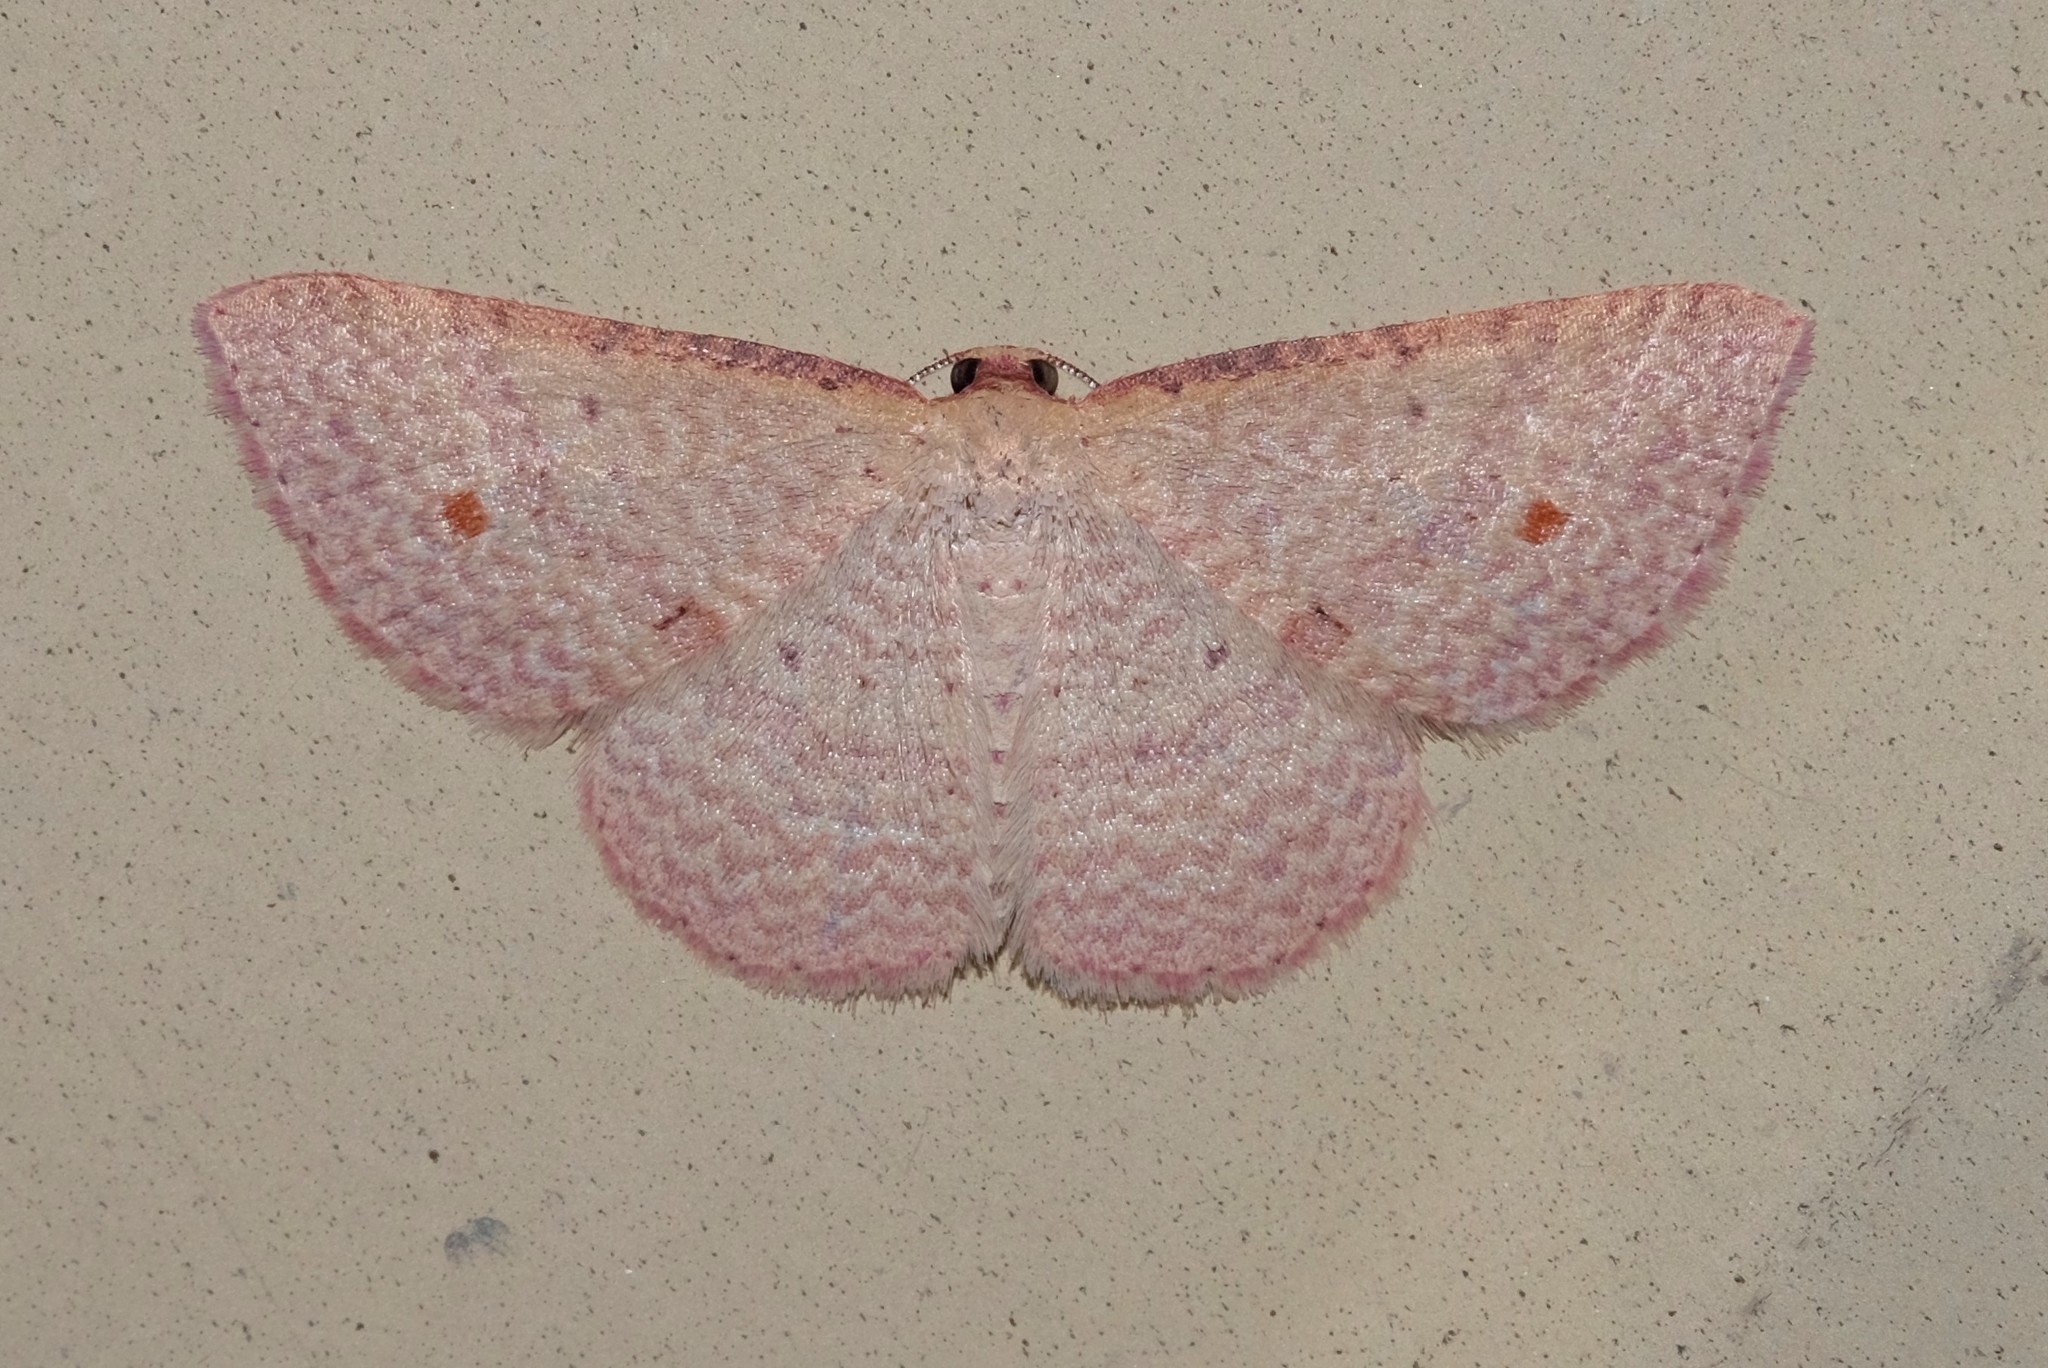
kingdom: Animalia
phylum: Arthropoda
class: Insecta
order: Lepidoptera
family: Geometridae
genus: Epicyme
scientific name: Epicyme rubropunctaria
